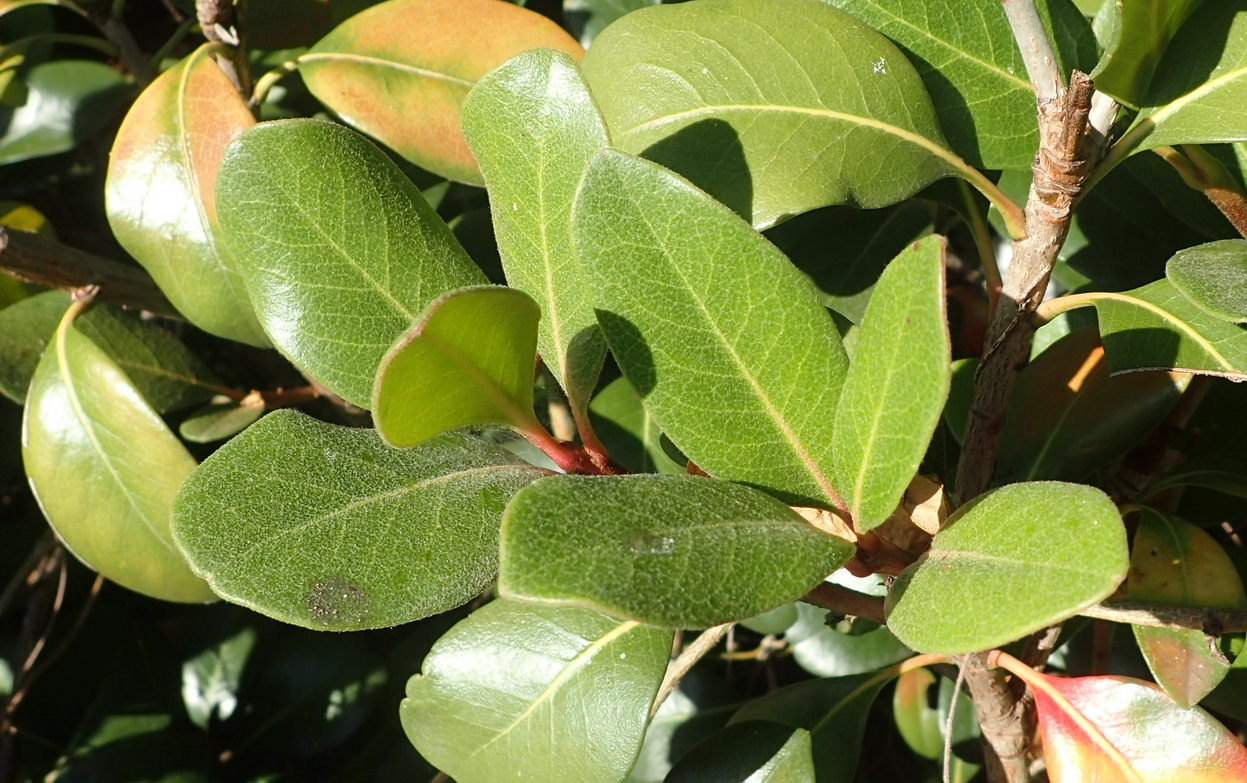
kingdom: Plantae
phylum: Tracheophyta
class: Magnoliopsida
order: Rosales
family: Rosaceae
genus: Rhaphiolepis
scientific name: Rhaphiolepis indica
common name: India-hawthorn
